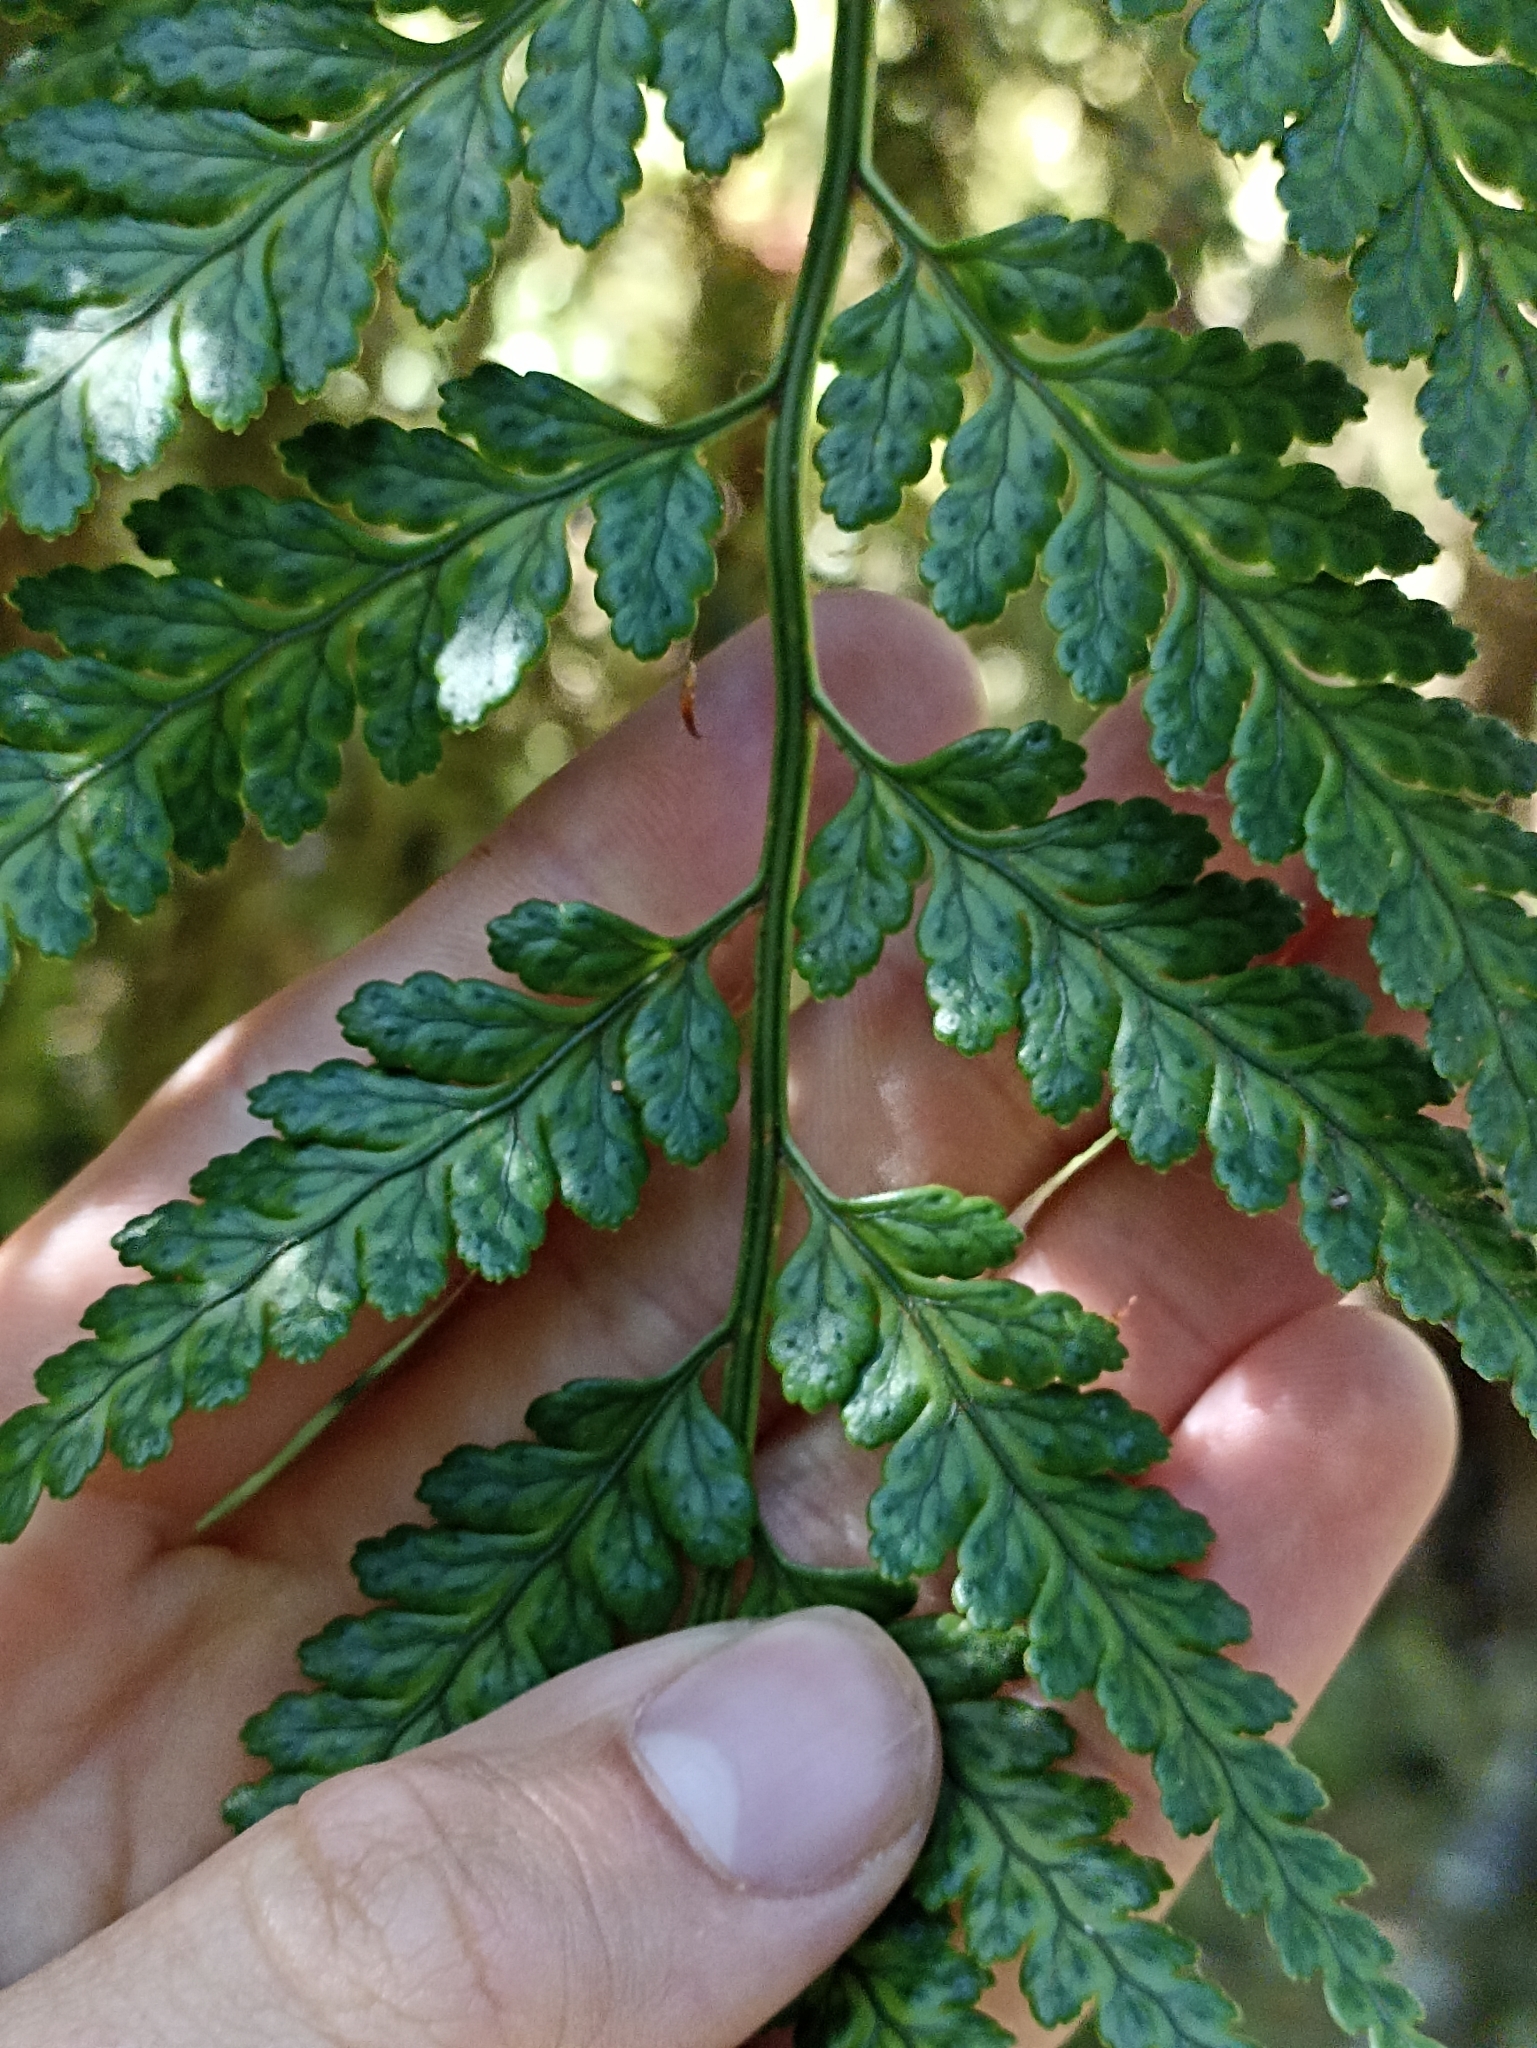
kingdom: Plantae
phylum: Tracheophyta
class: Polypodiopsida
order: Polypodiales
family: Dryopteridaceae
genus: Rumohra
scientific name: Rumohra adiantiformis
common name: Leather fern
